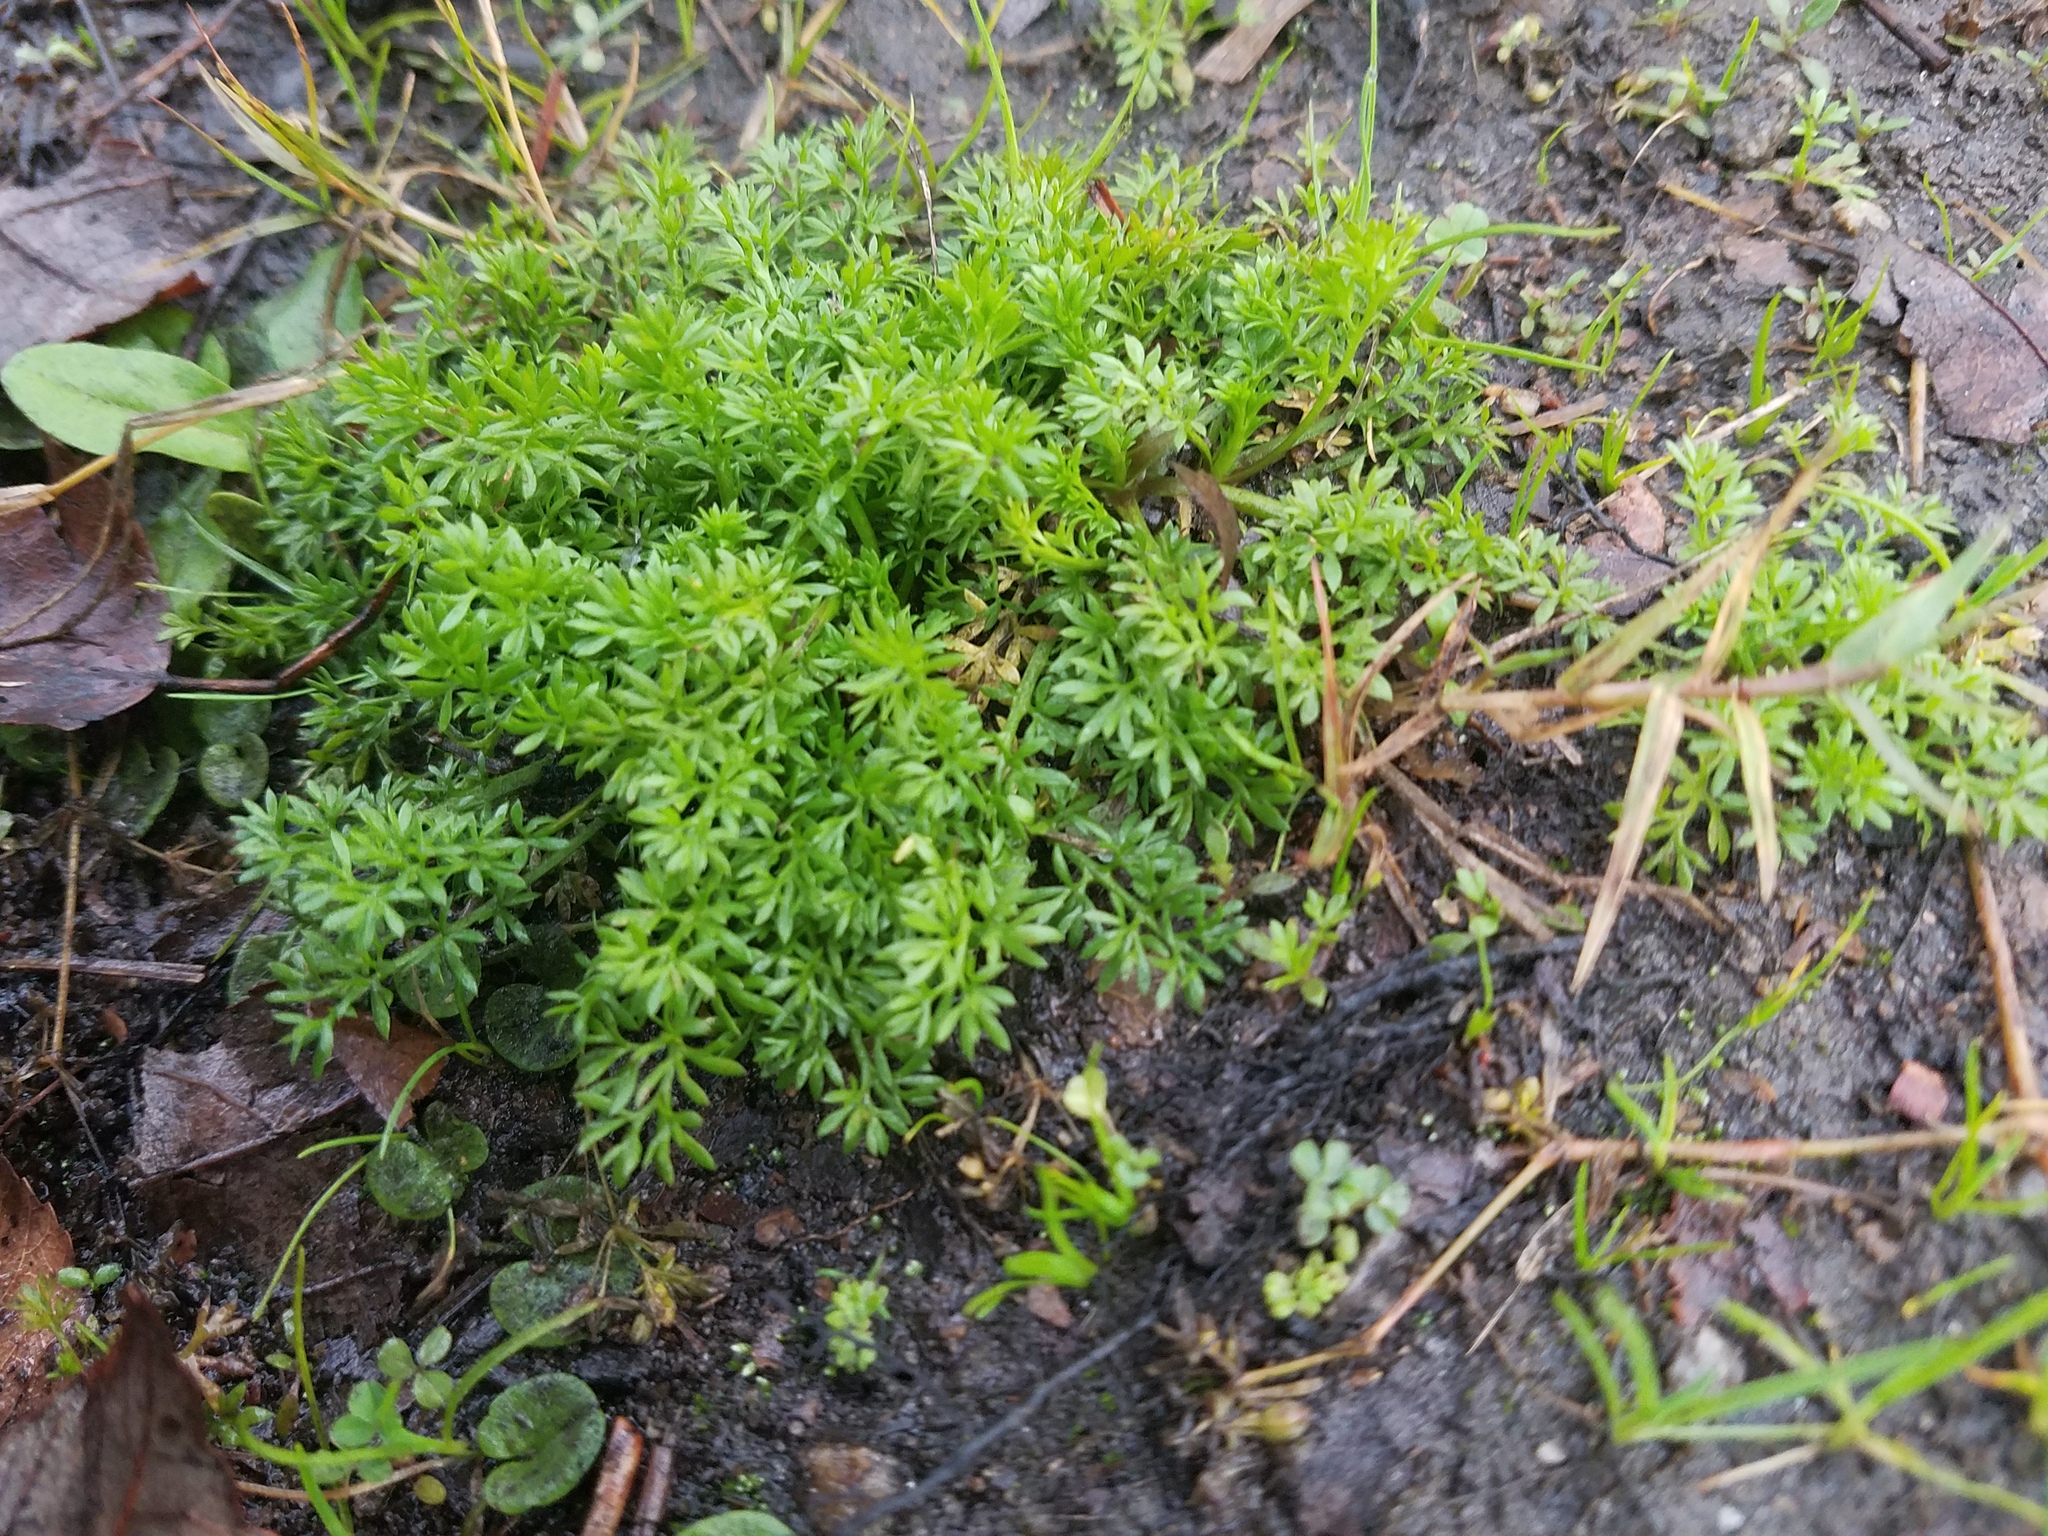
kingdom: Plantae
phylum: Tracheophyta
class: Magnoliopsida
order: Asterales
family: Asteraceae
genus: Soliva
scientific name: Soliva sessilis
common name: Field burrweed
